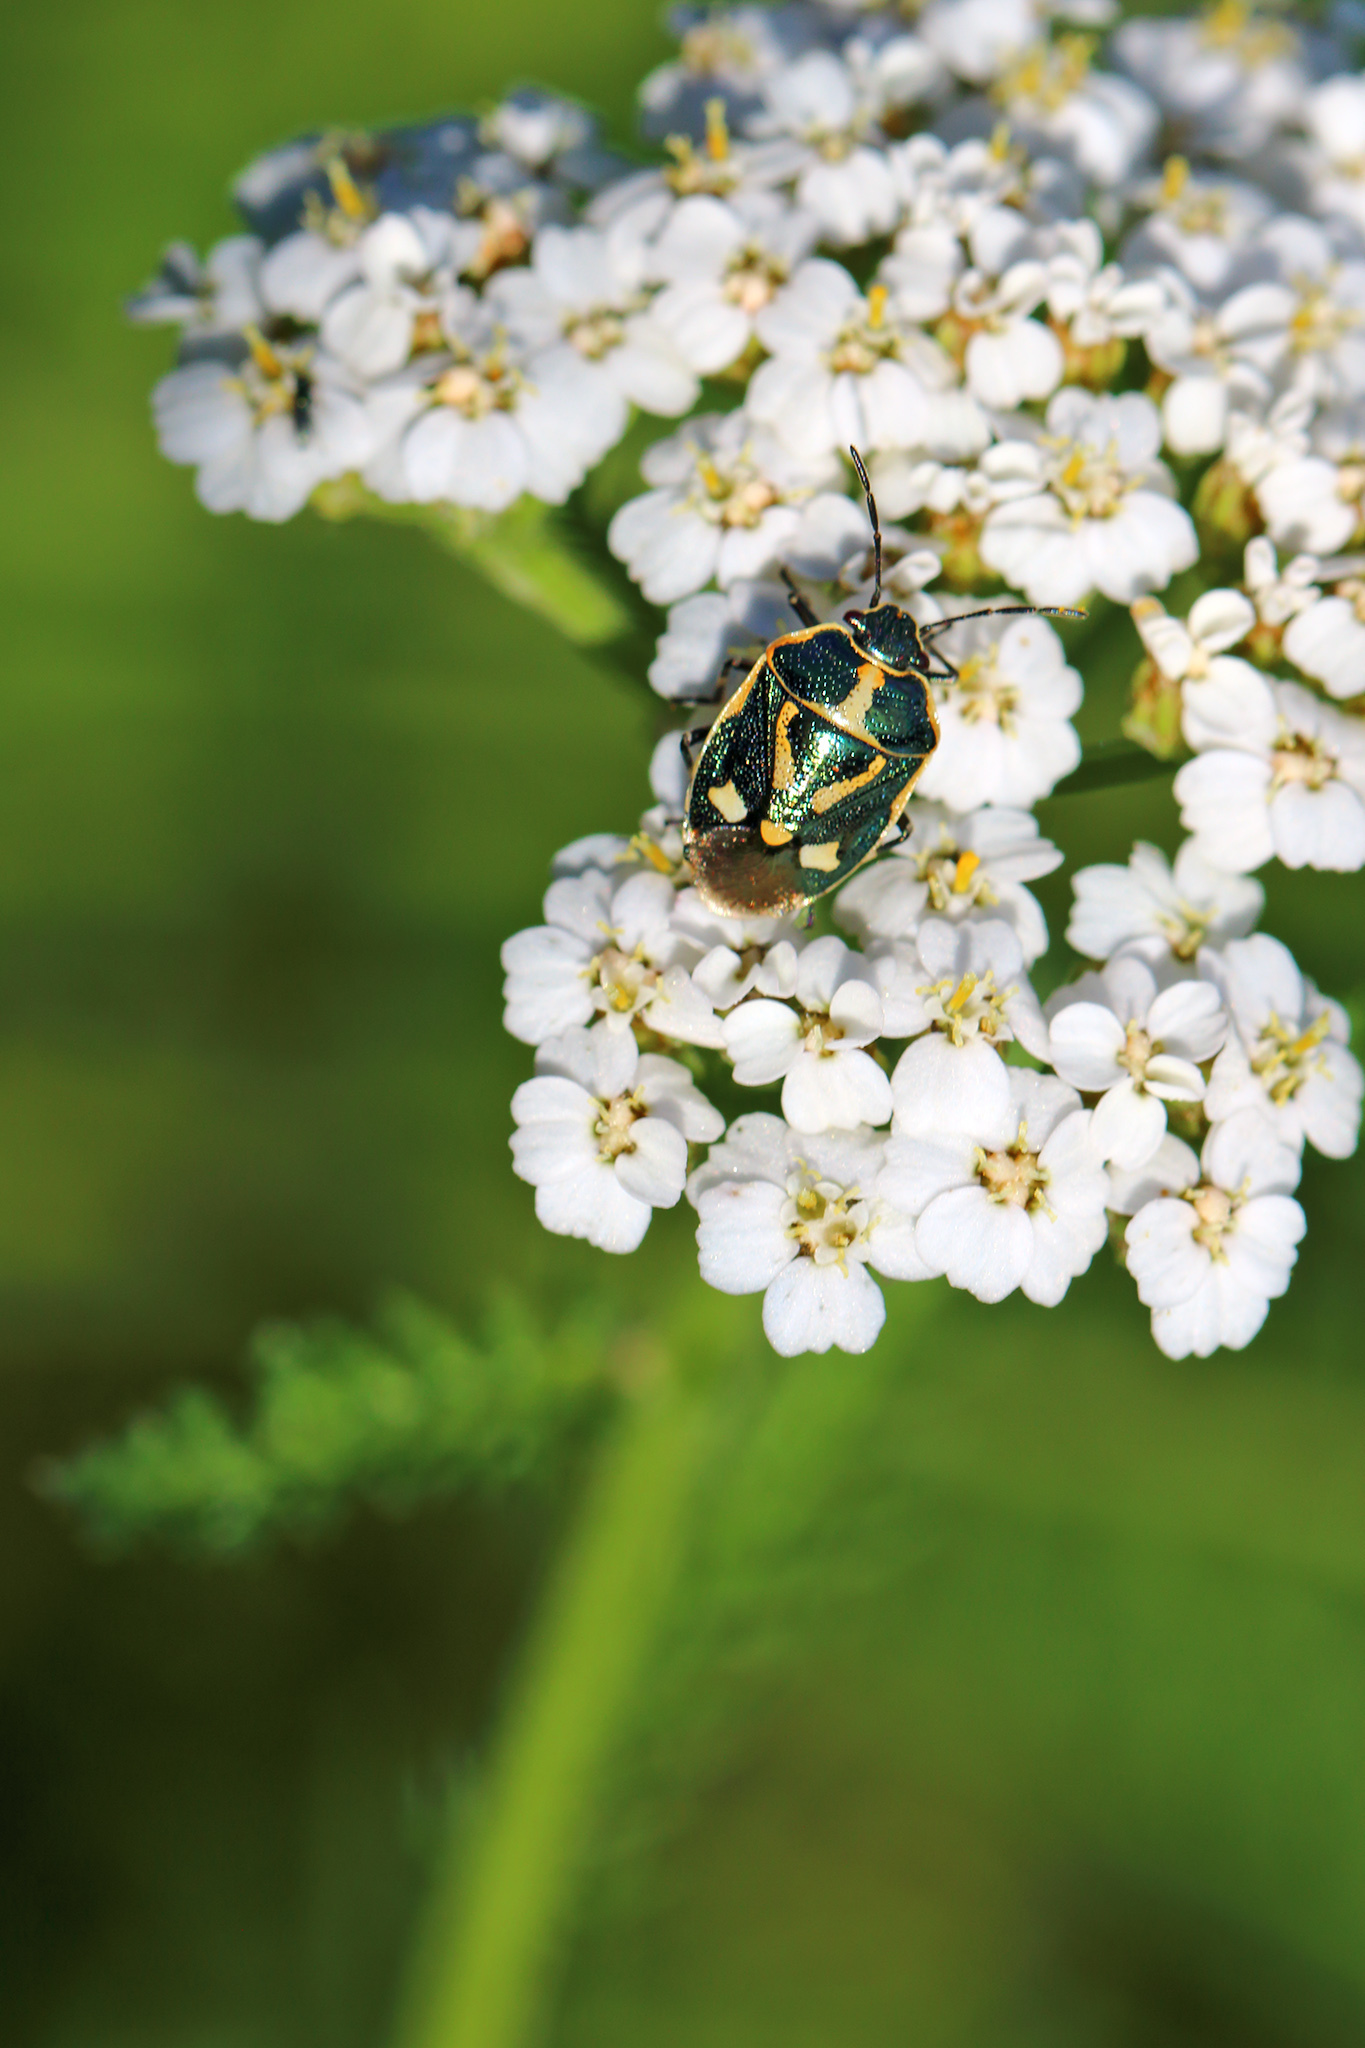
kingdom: Animalia
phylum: Arthropoda
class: Insecta
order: Hemiptera
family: Pentatomidae
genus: Eurydema
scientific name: Eurydema oleracea
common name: Cabbage bug
